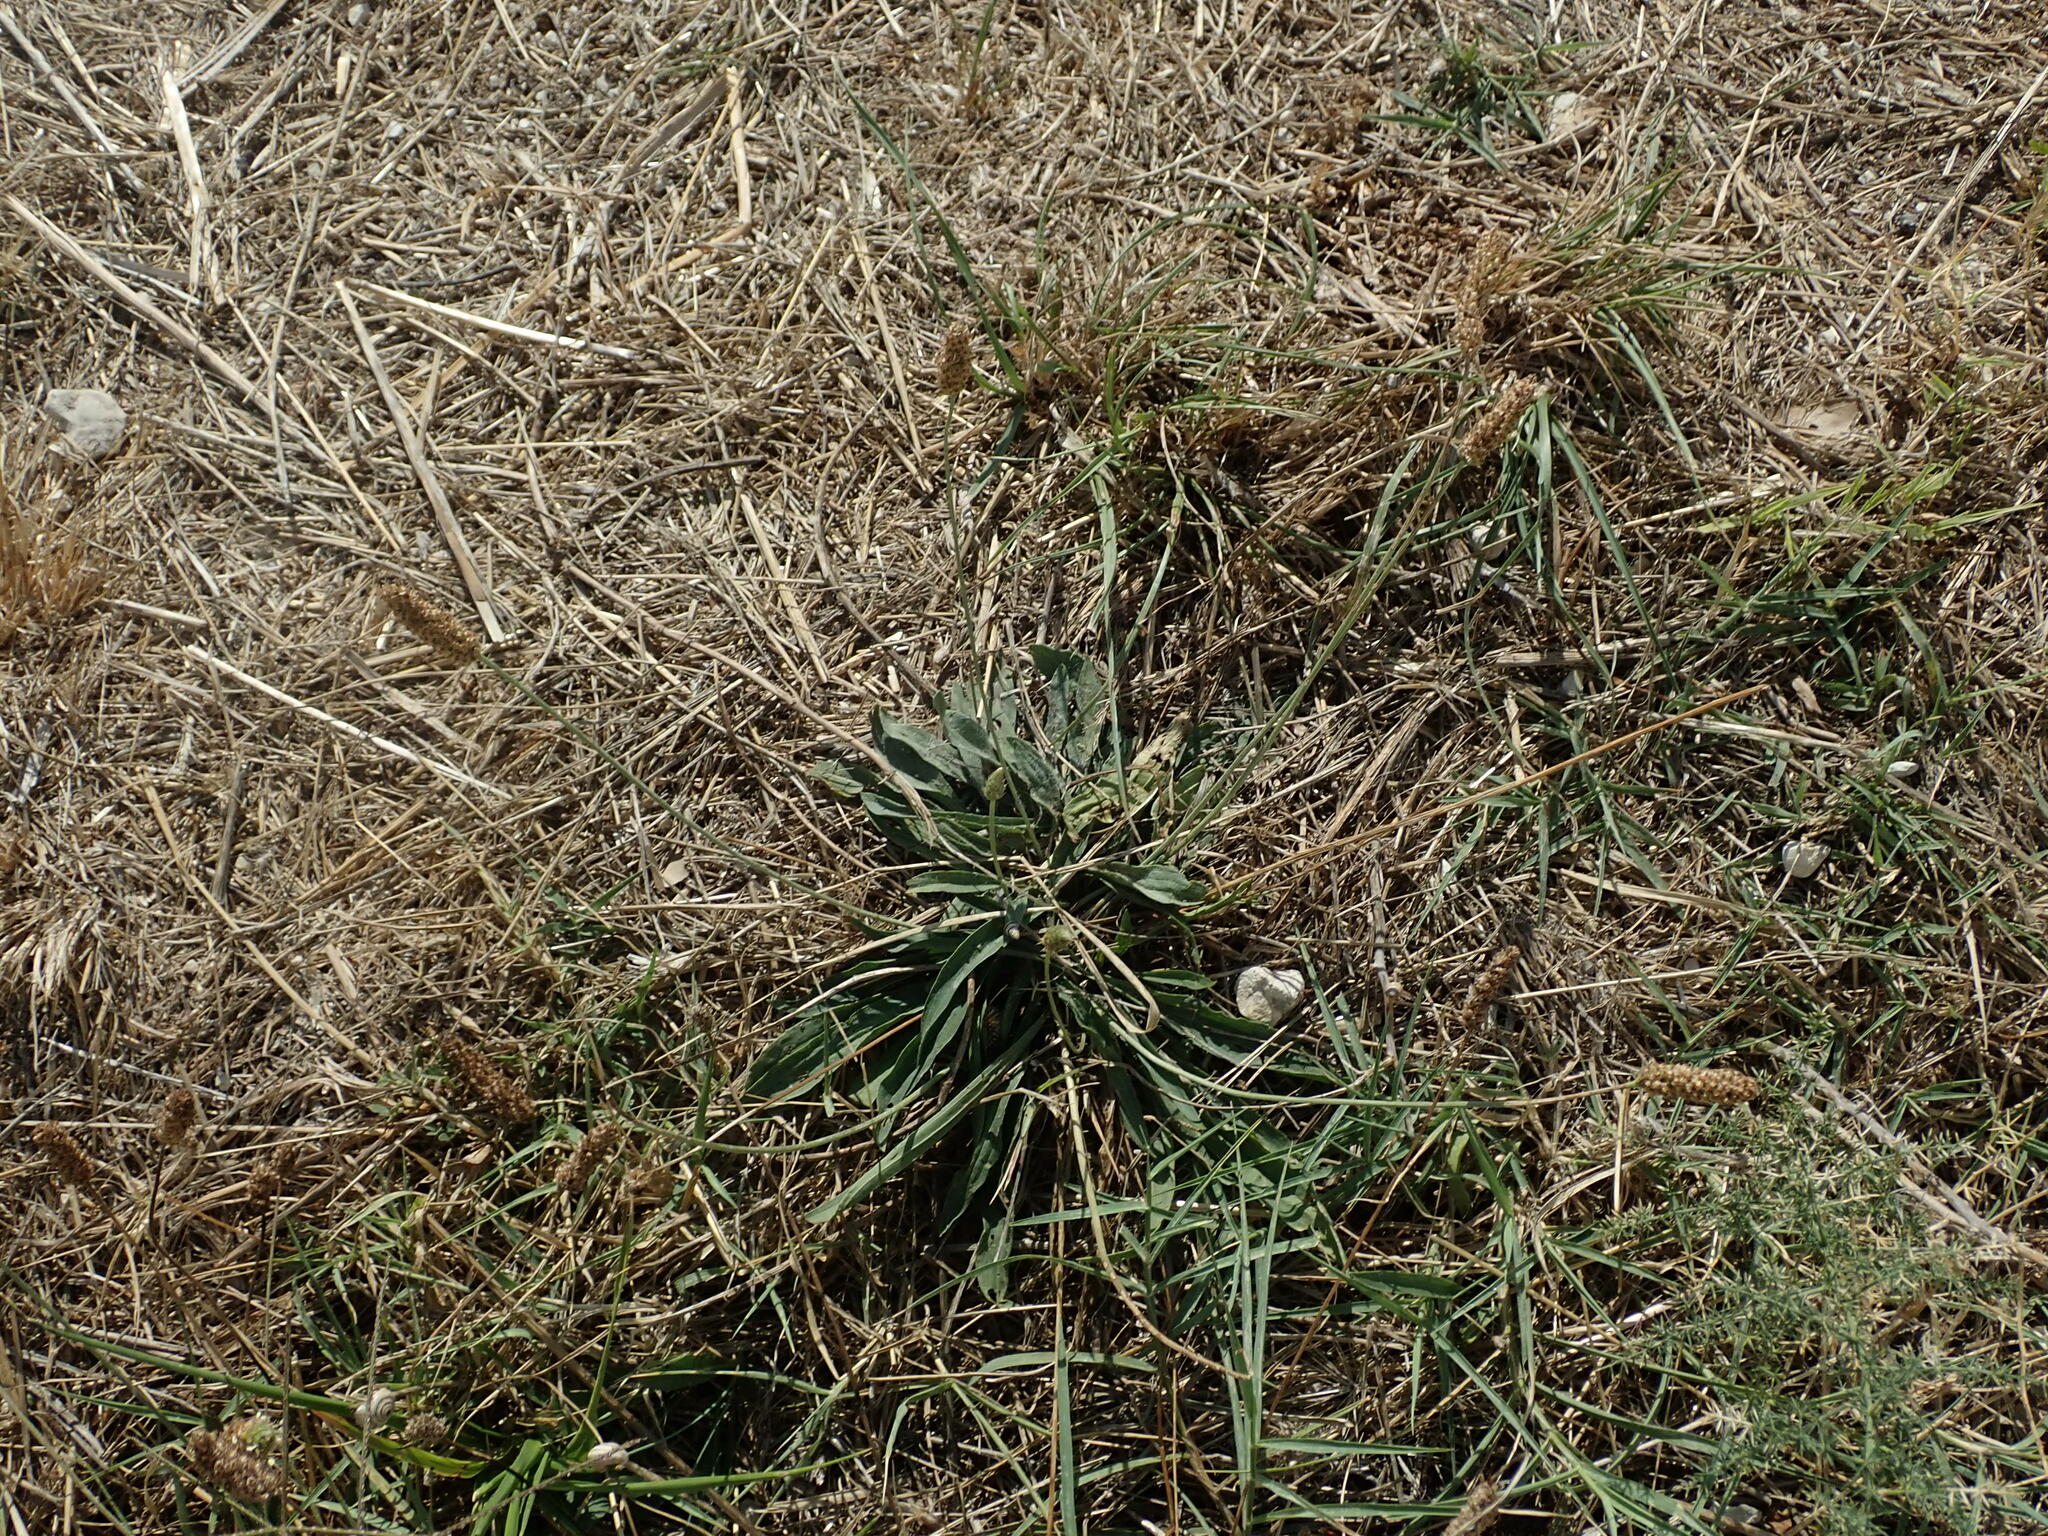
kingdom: Plantae
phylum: Tracheophyta
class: Magnoliopsida
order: Lamiales
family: Plantaginaceae
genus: Plantago
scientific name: Plantago lanceolata
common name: Ribwort plantain
